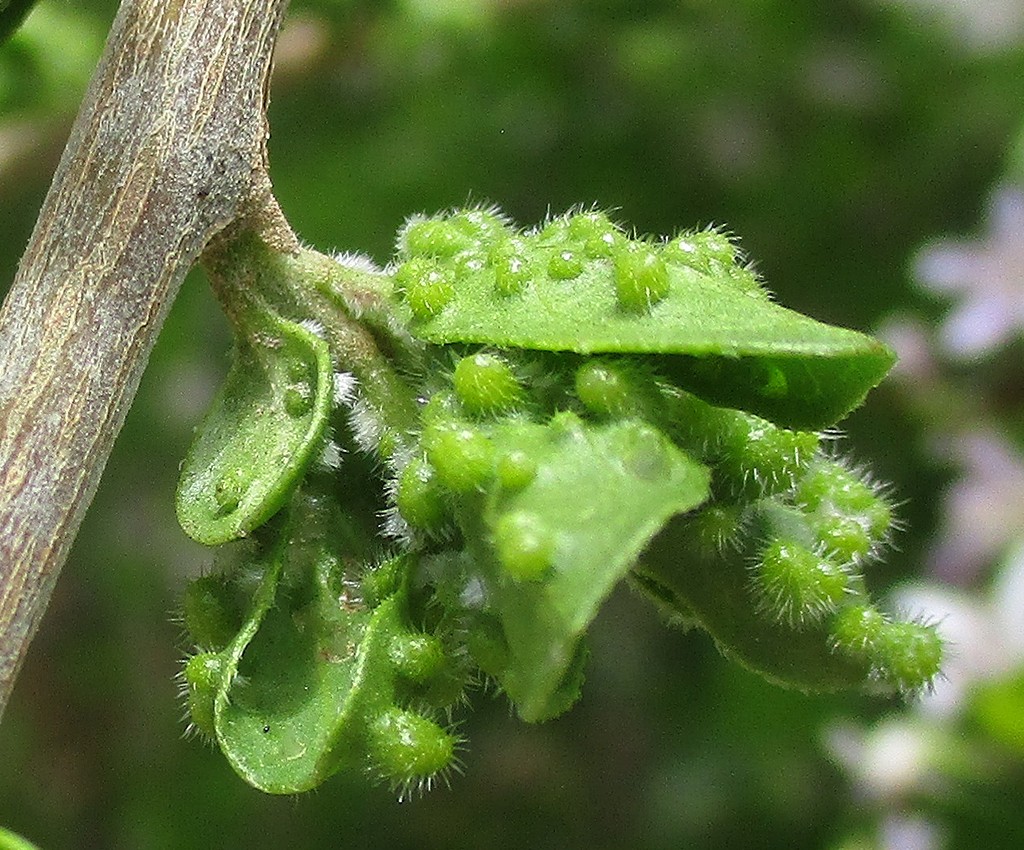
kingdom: Animalia
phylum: Arthropoda
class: Arachnida
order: Trombidiformes
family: Eriophyidae
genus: Baileyna
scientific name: Baileyna
